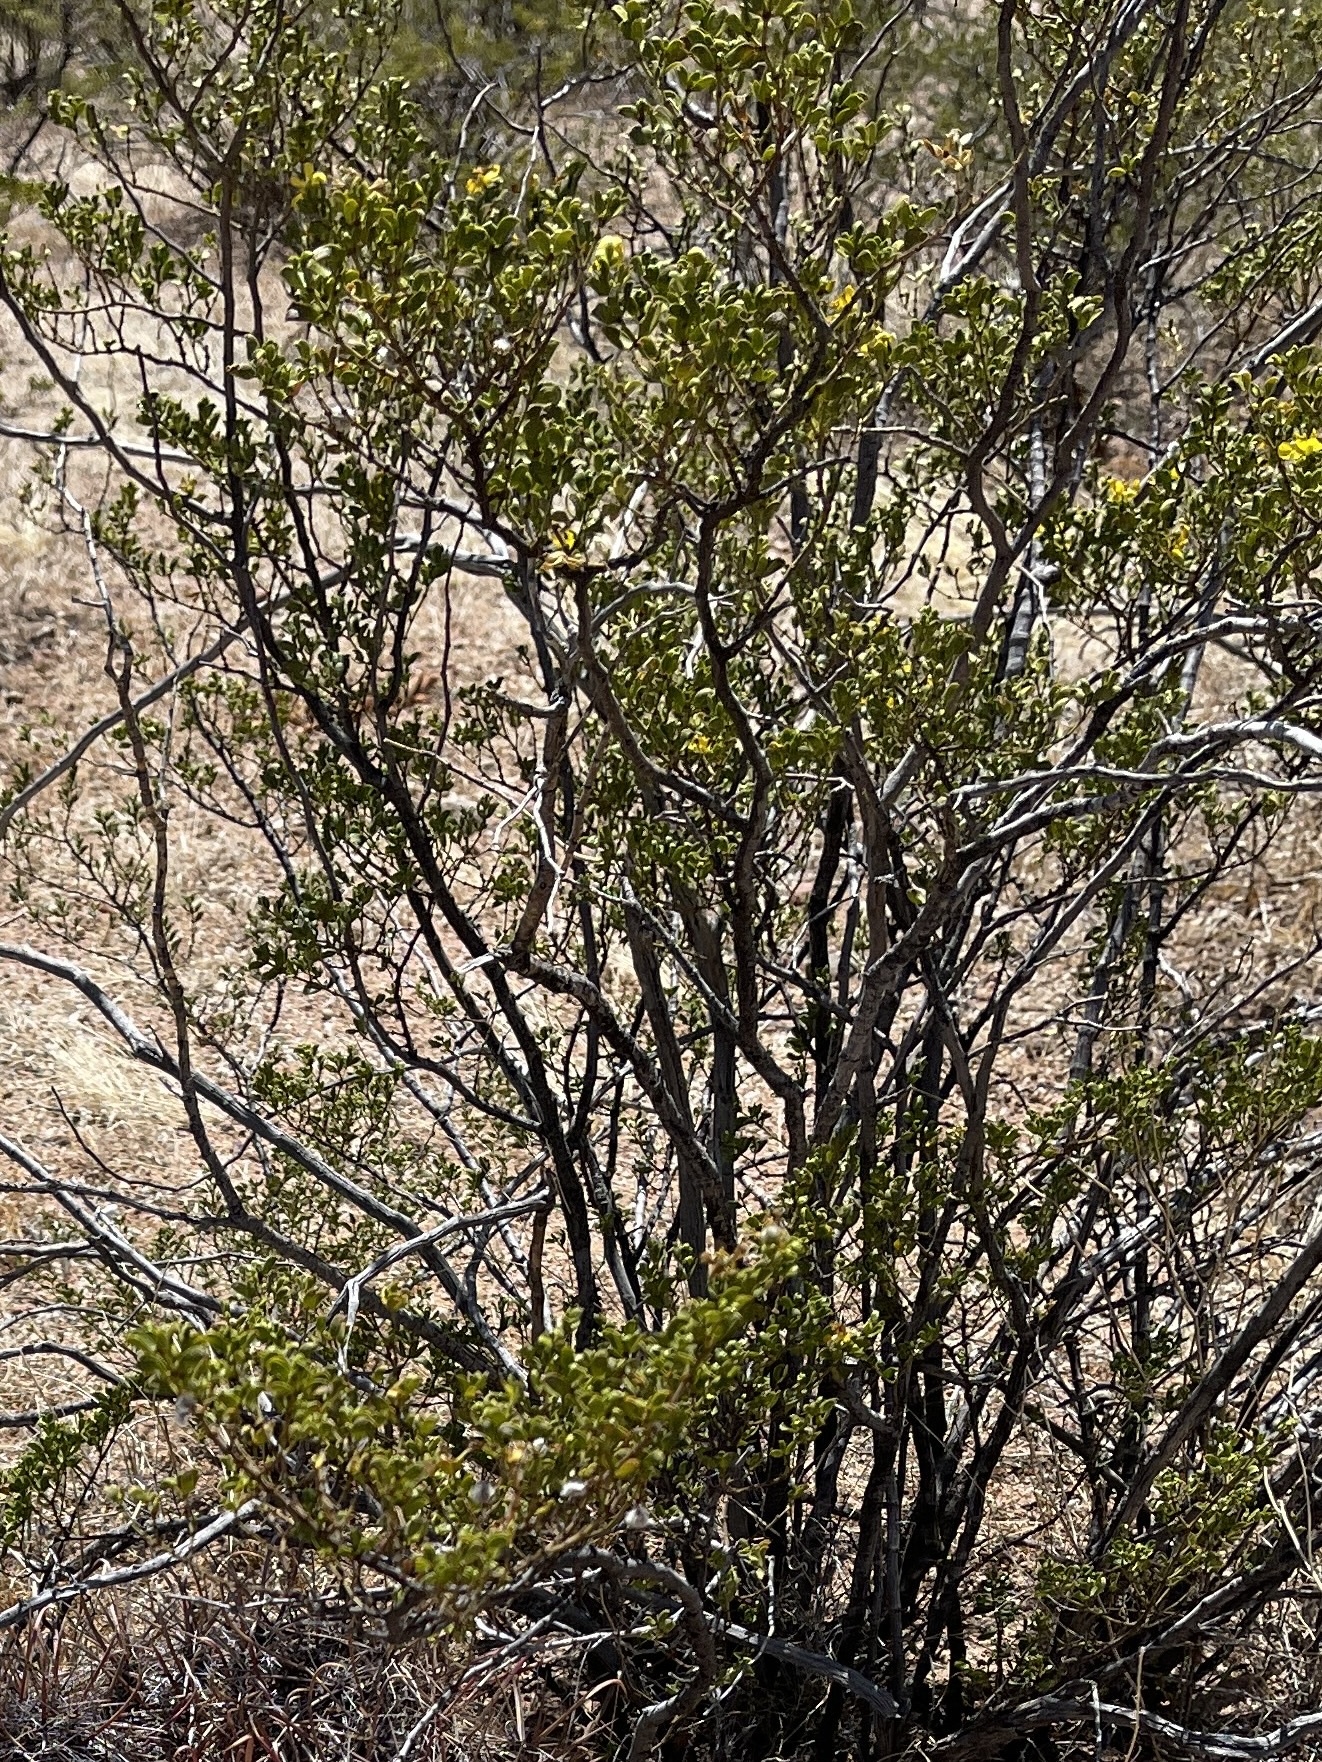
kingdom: Plantae
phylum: Tracheophyta
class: Magnoliopsida
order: Zygophyllales
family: Zygophyllaceae
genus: Larrea
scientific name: Larrea tridentata
